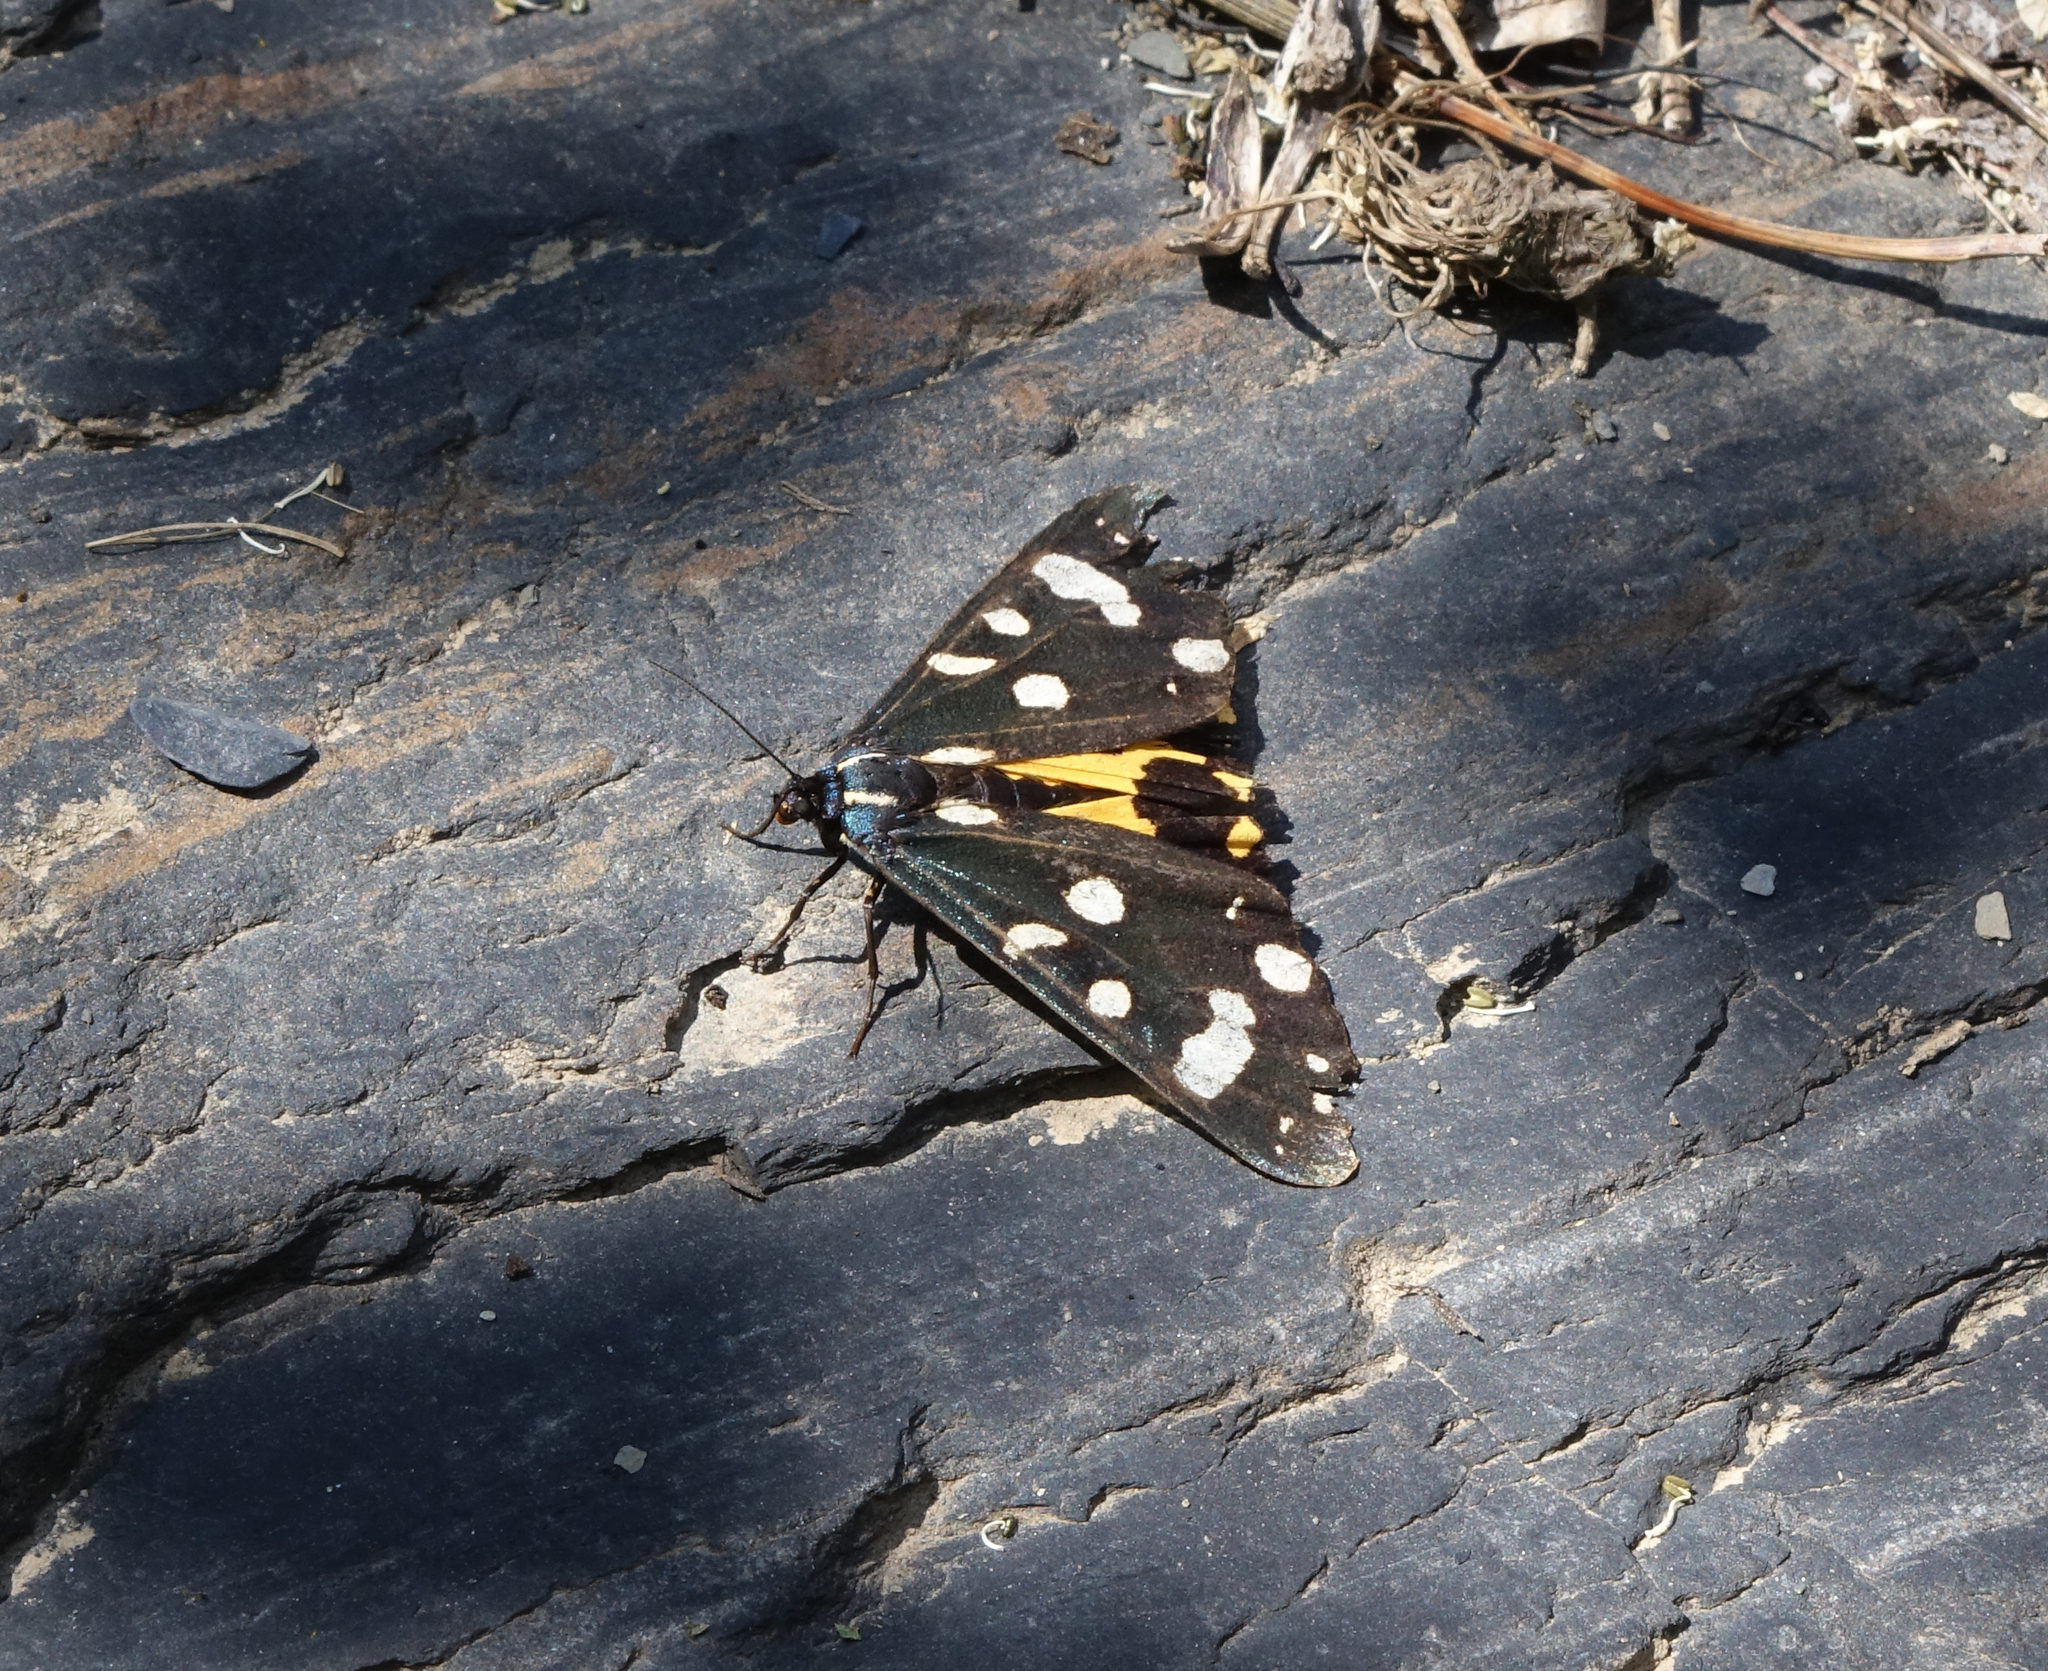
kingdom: Animalia
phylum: Arthropoda
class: Insecta
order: Lepidoptera
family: Erebidae
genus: Epicallia
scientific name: Epicallia villica
